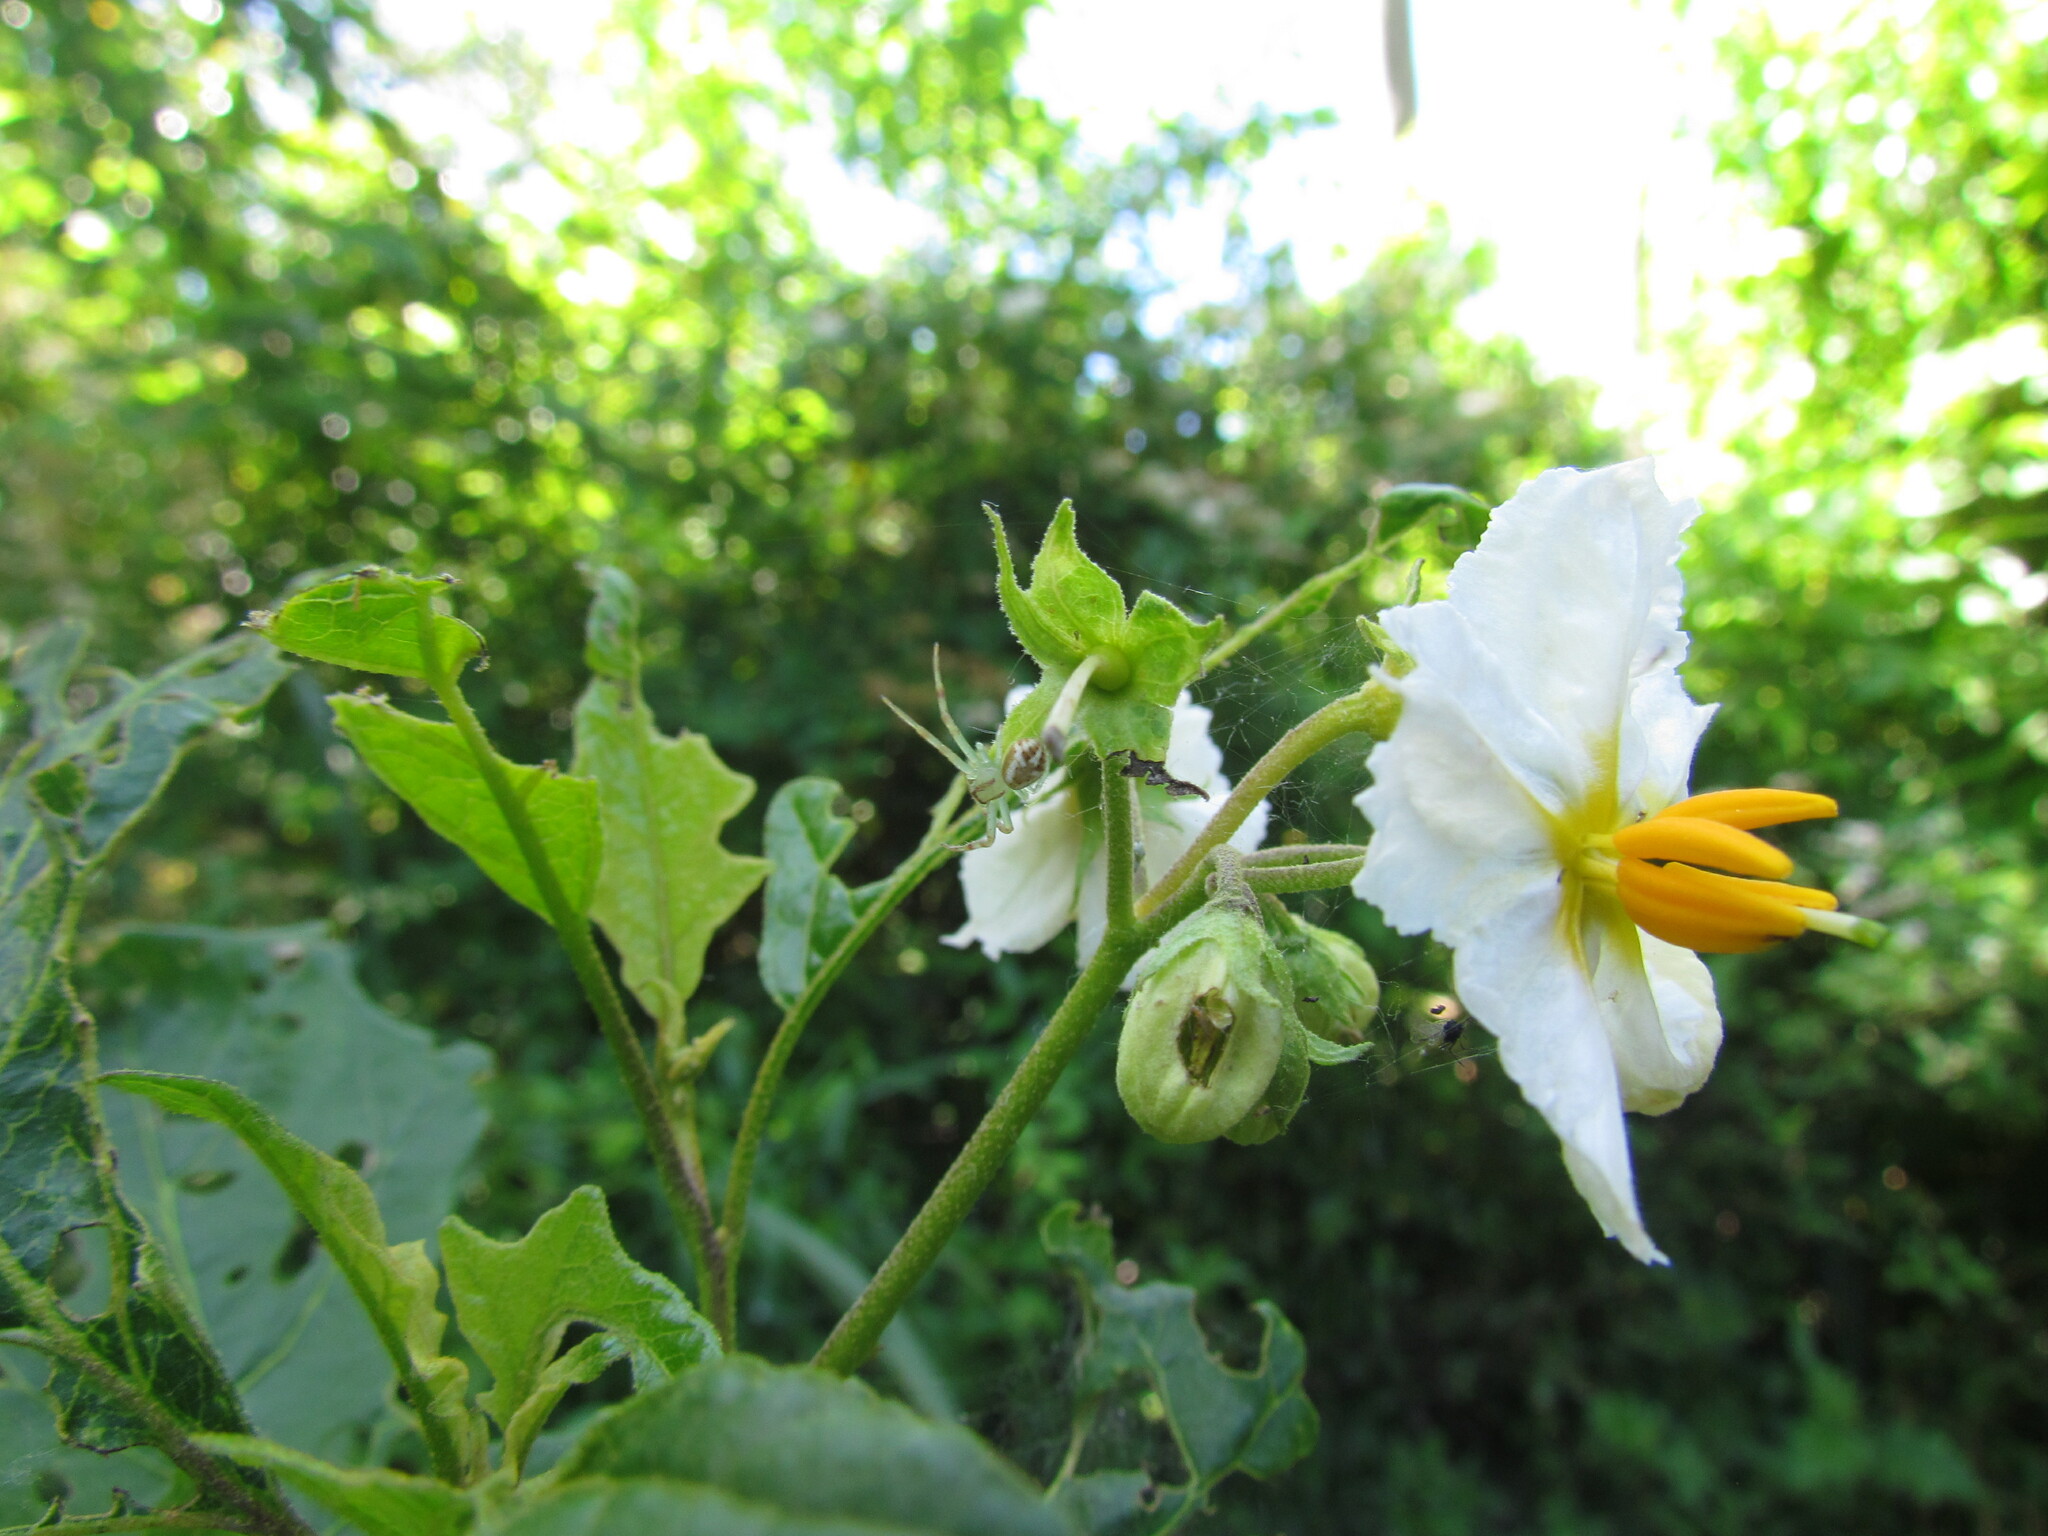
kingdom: Animalia
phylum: Arthropoda
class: Arachnida
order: Araneae
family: Thomisidae
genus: Misumenops
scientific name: Misumenops
